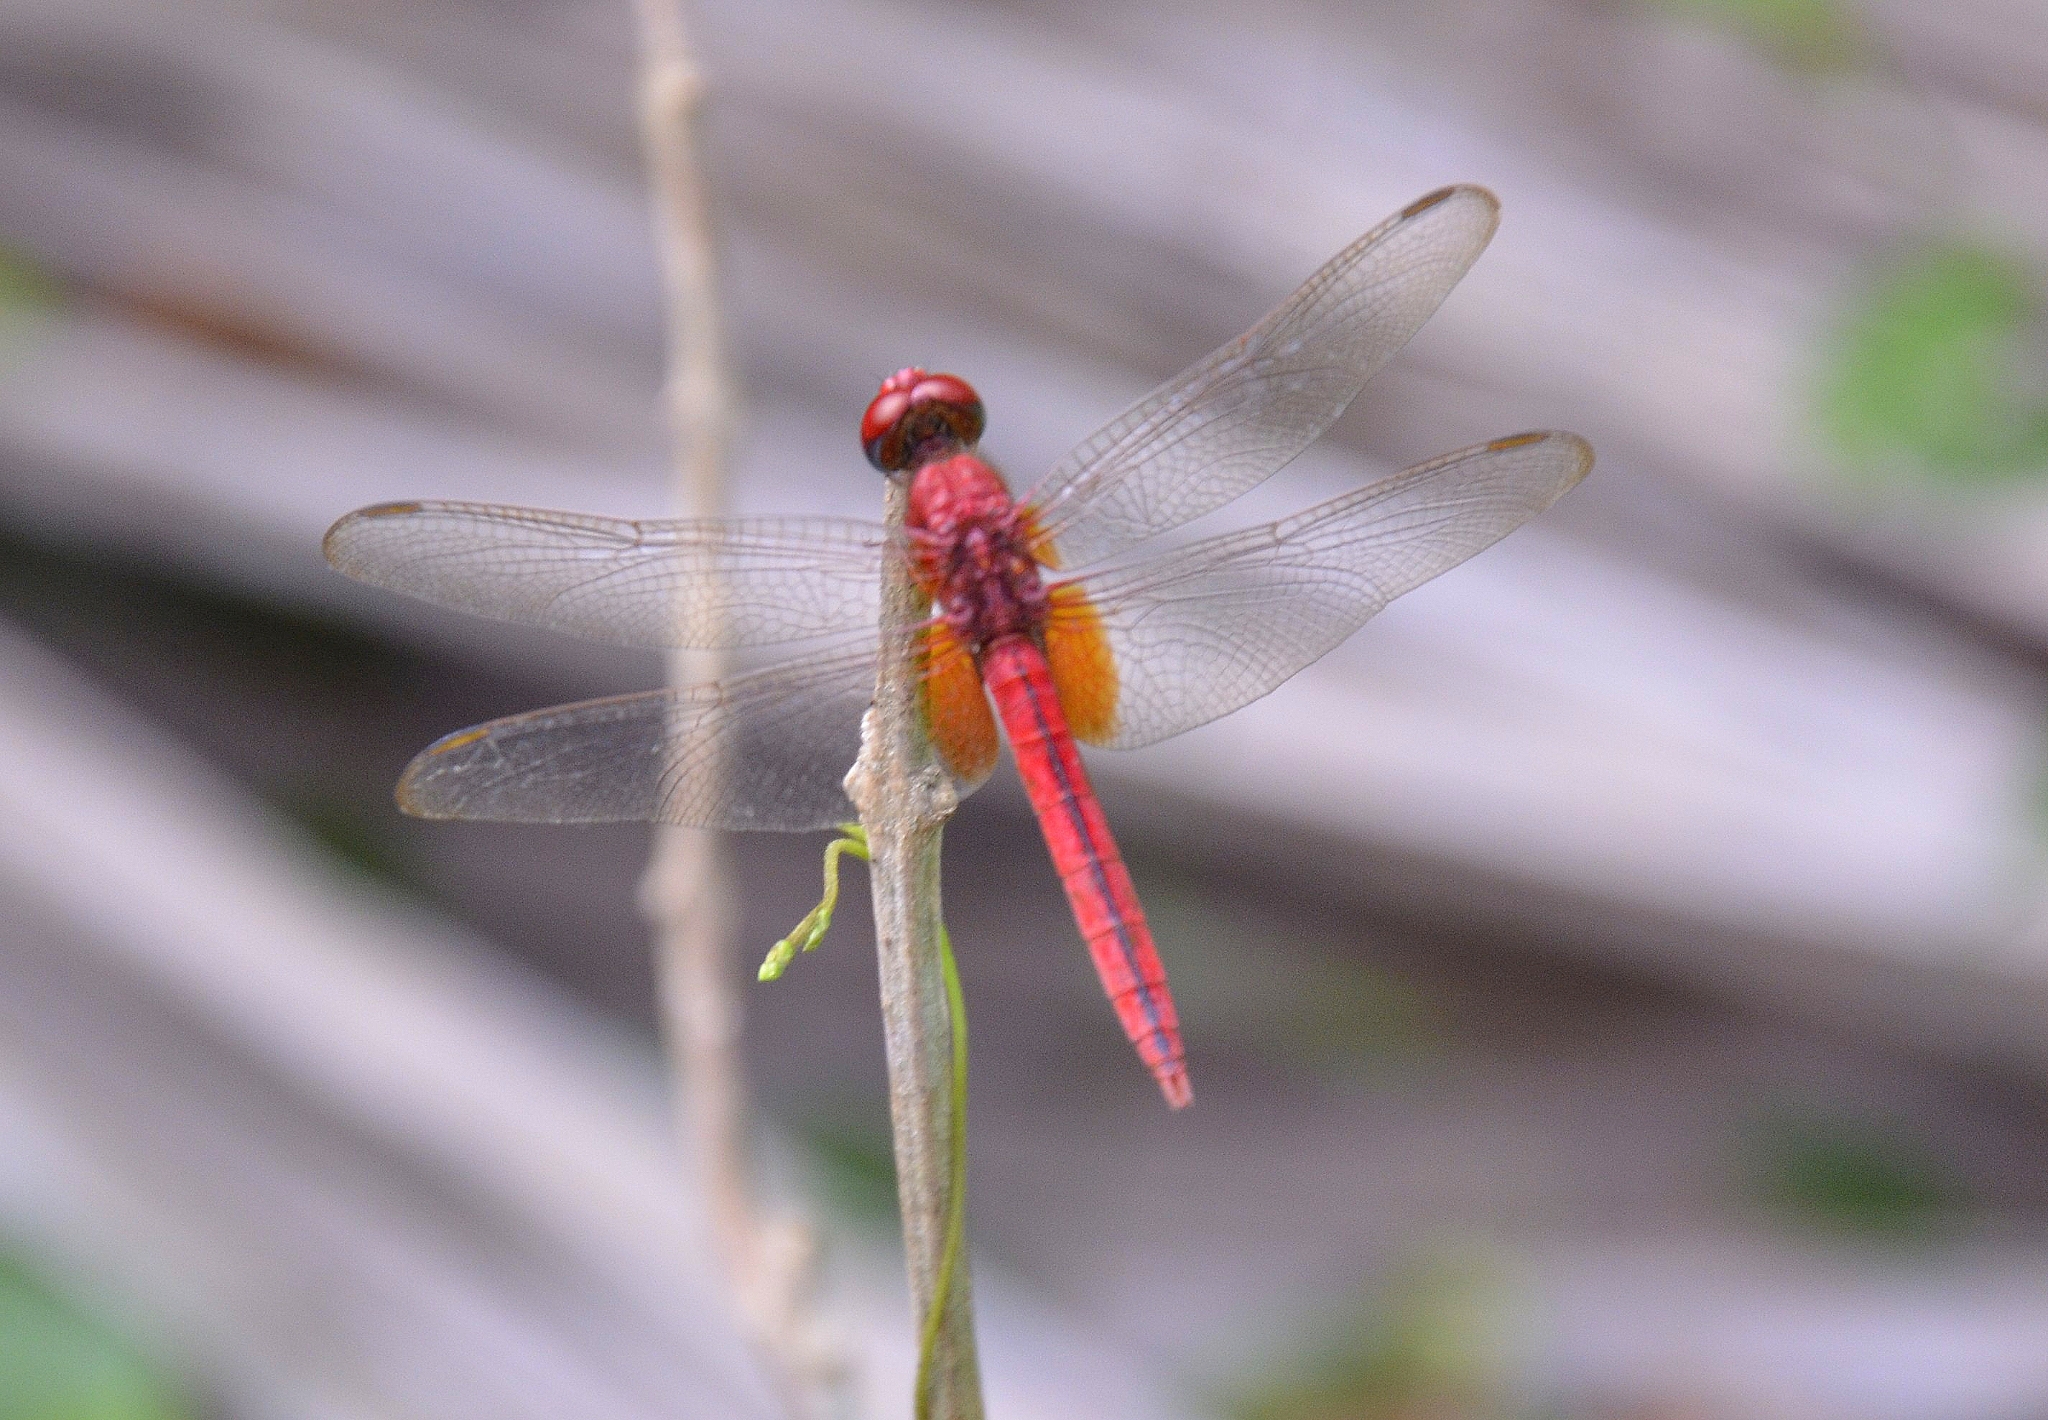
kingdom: Animalia
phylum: Arthropoda
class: Insecta
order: Odonata
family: Libellulidae
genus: Crocothemis
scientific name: Crocothemis servilia
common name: Scarlet skimmer
